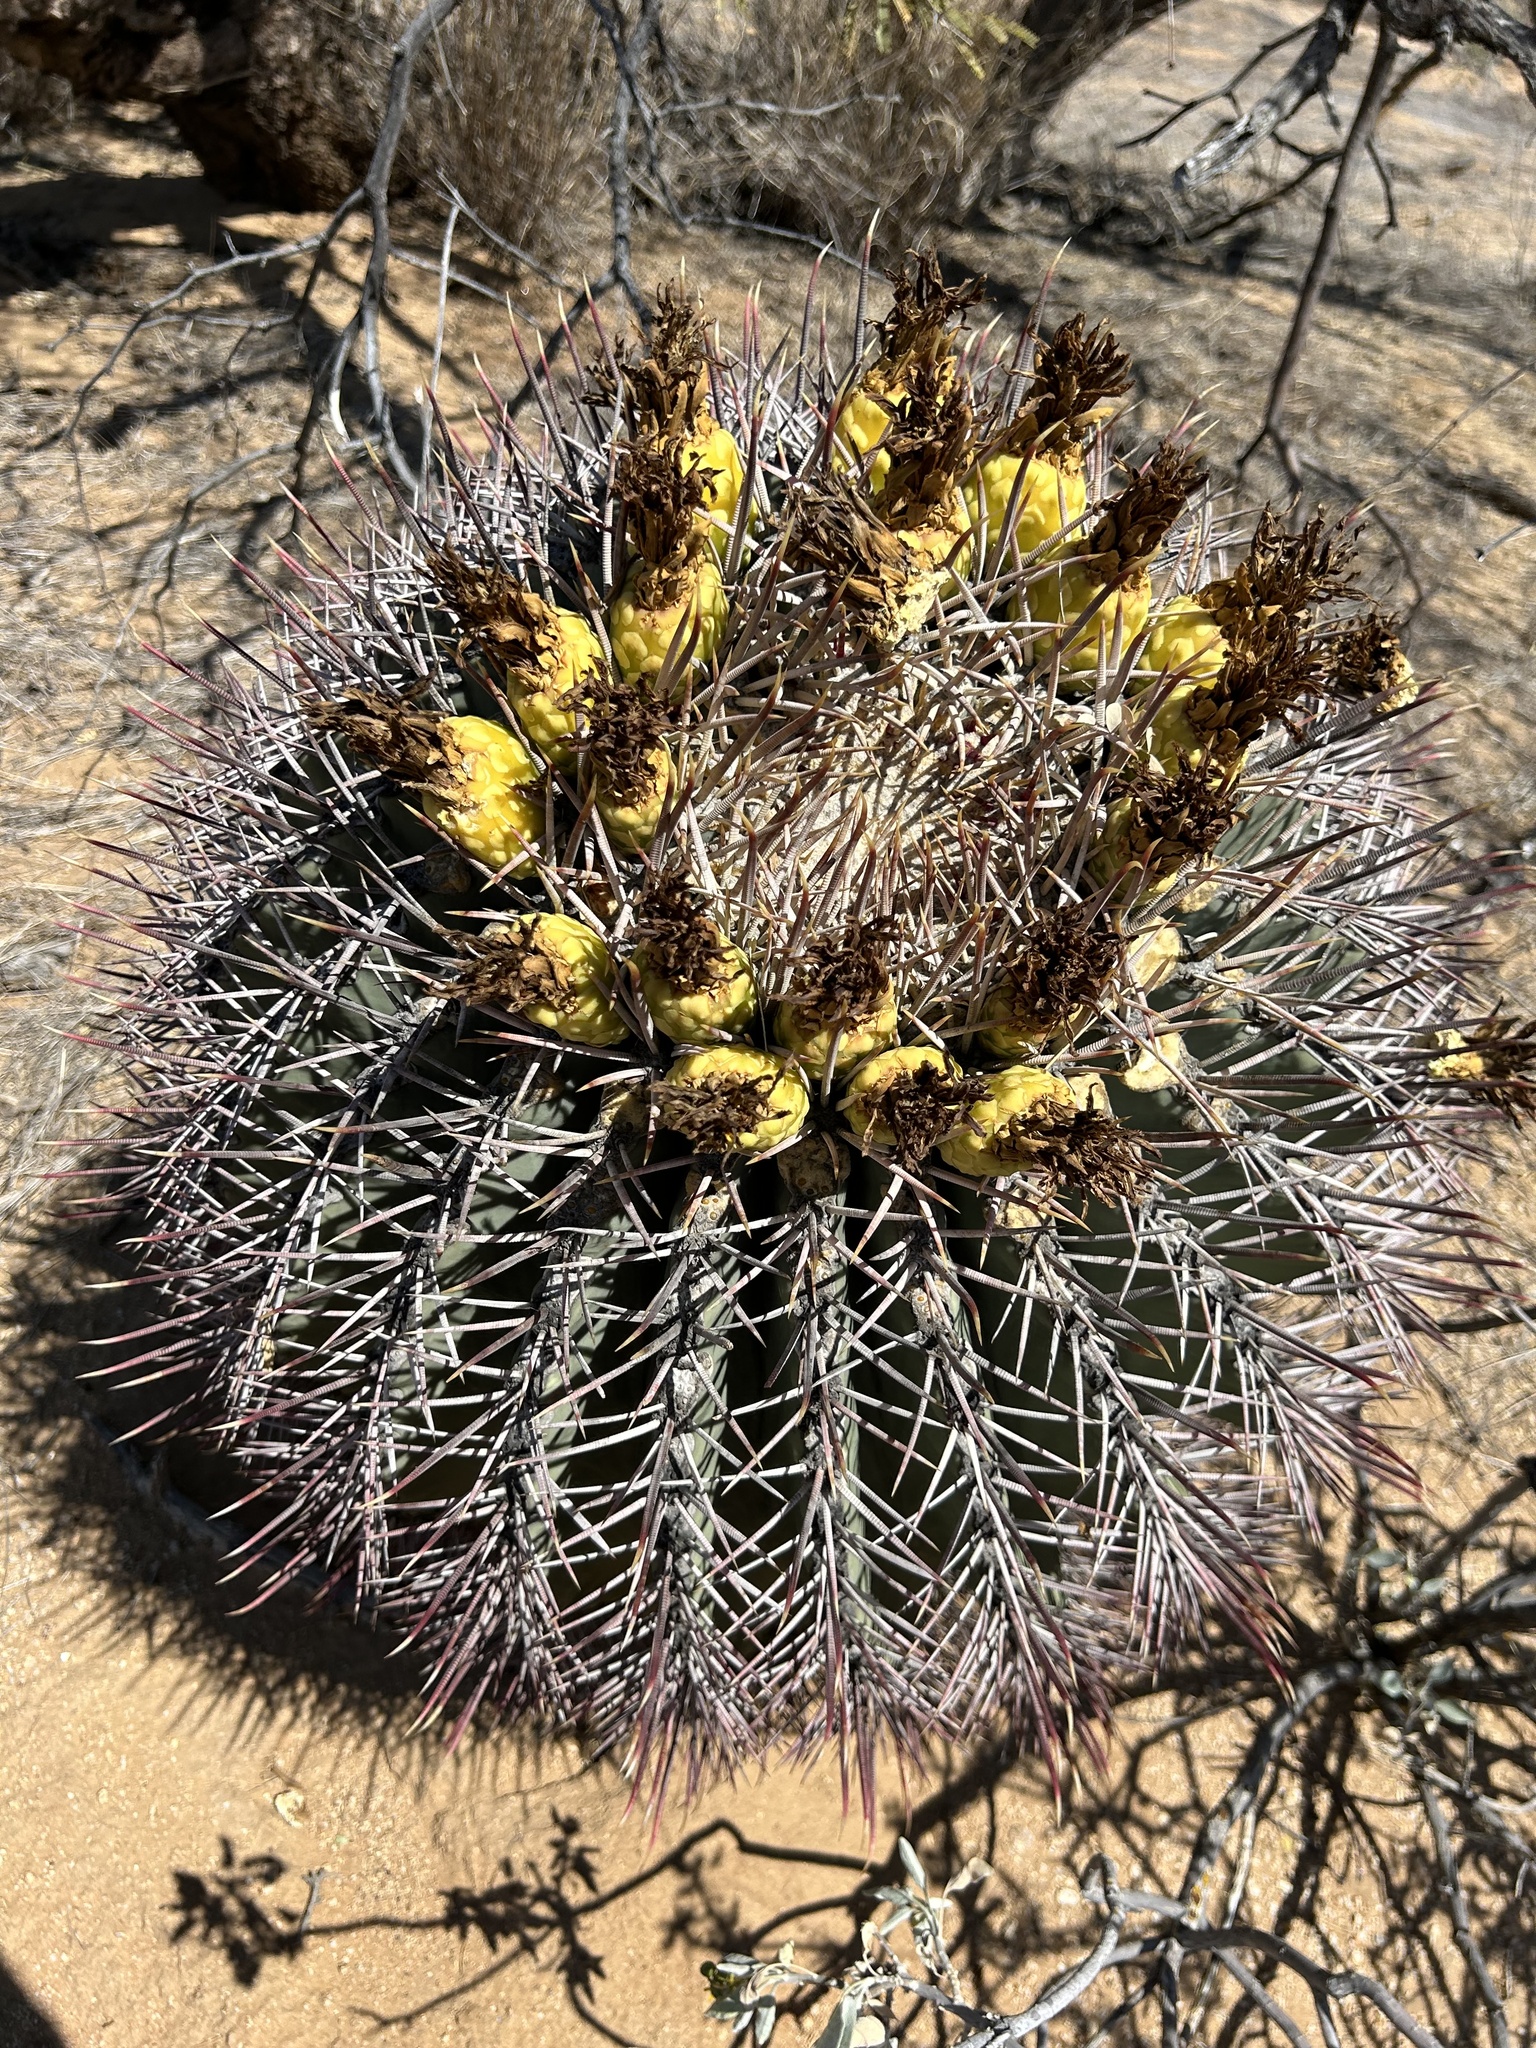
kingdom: Plantae
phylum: Tracheophyta
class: Magnoliopsida
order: Caryophyllales
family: Cactaceae
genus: Ferocactus
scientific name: Ferocactus emoryi
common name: Emory's barrel cactus
